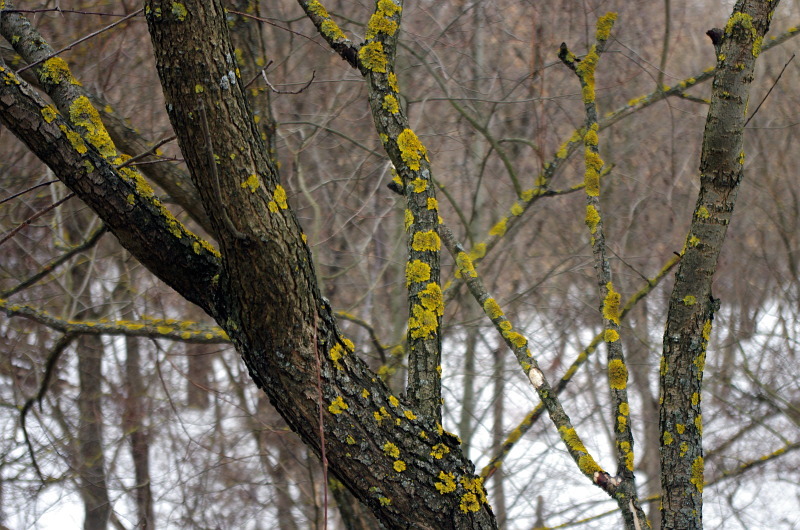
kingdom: Fungi
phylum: Ascomycota
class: Lecanoromycetes
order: Teloschistales
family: Teloschistaceae
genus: Xanthoria
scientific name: Xanthoria parietina
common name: Common orange lichen
